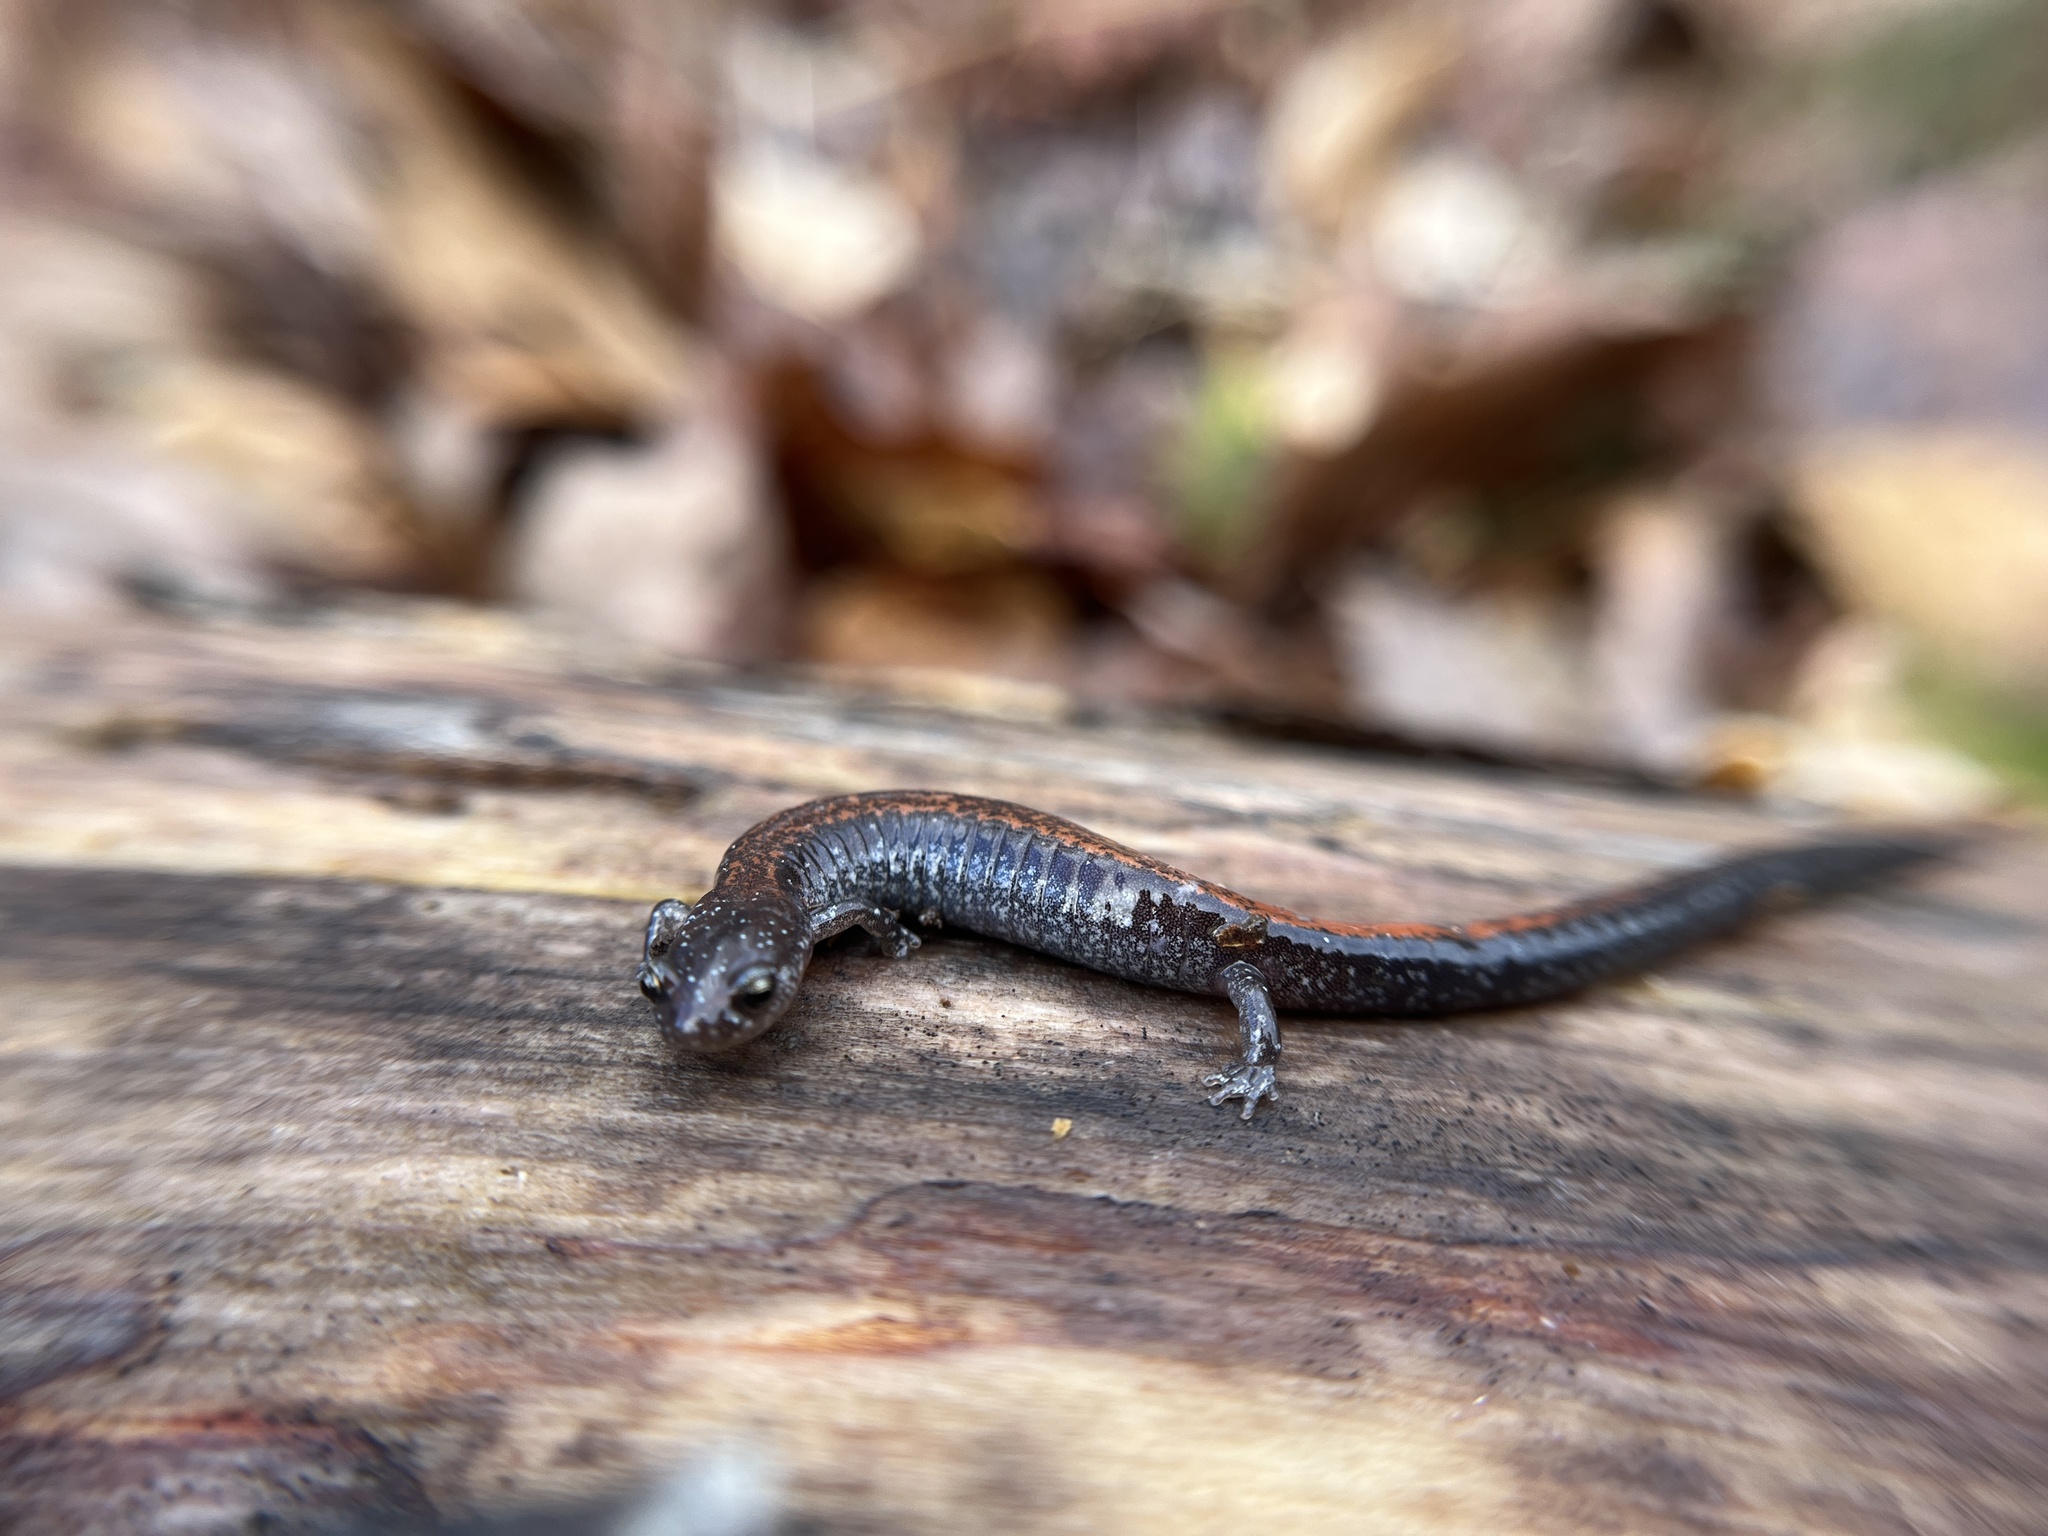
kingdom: Animalia
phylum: Chordata
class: Amphibia
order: Caudata
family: Plethodontidae
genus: Plethodon
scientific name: Plethodon cinereus
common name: Redback salamander
